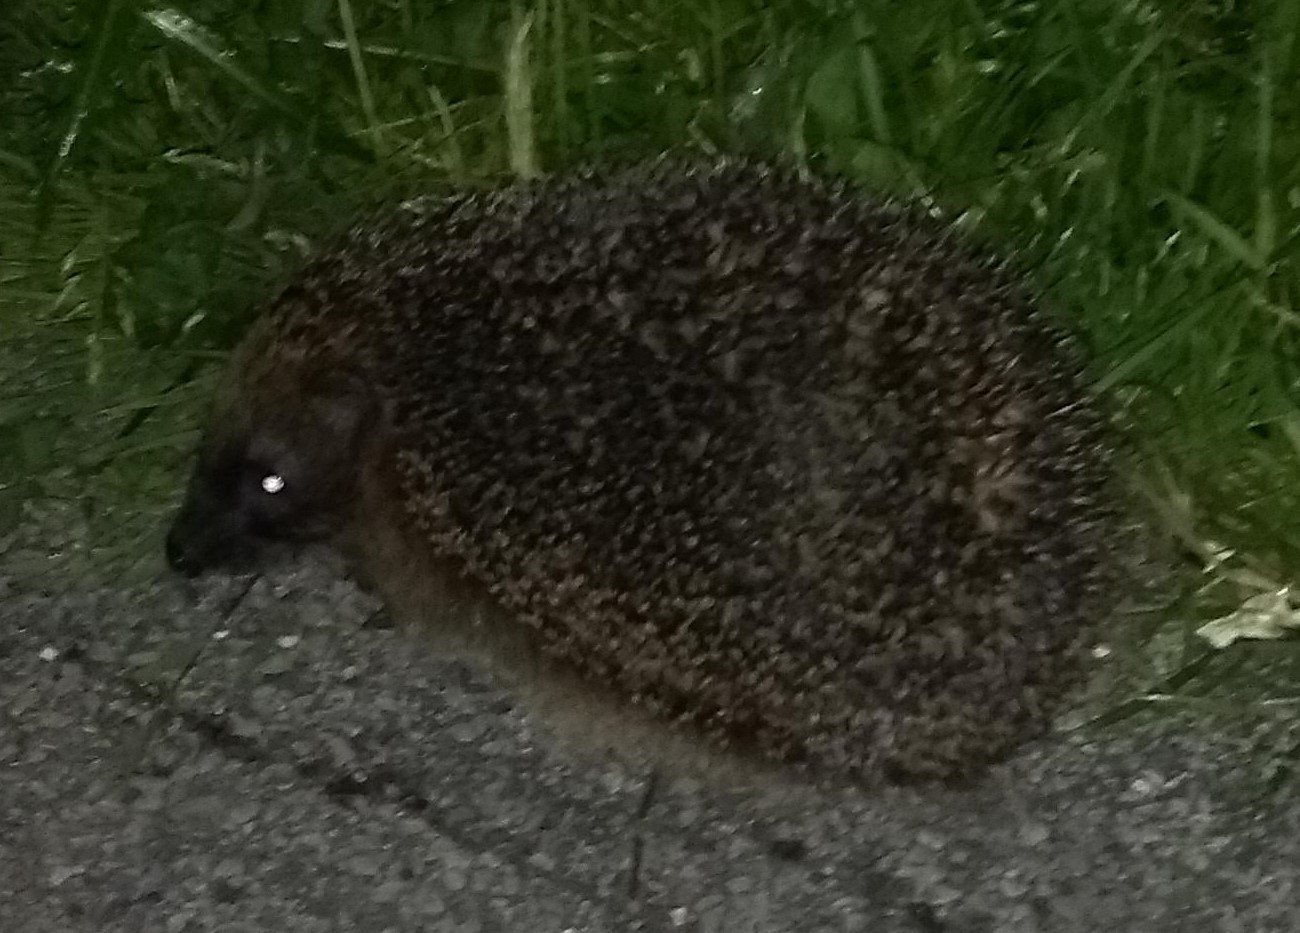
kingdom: Animalia
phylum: Chordata
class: Mammalia
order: Erinaceomorpha
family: Erinaceidae
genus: Erinaceus
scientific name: Erinaceus europaeus
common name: West european hedgehog
